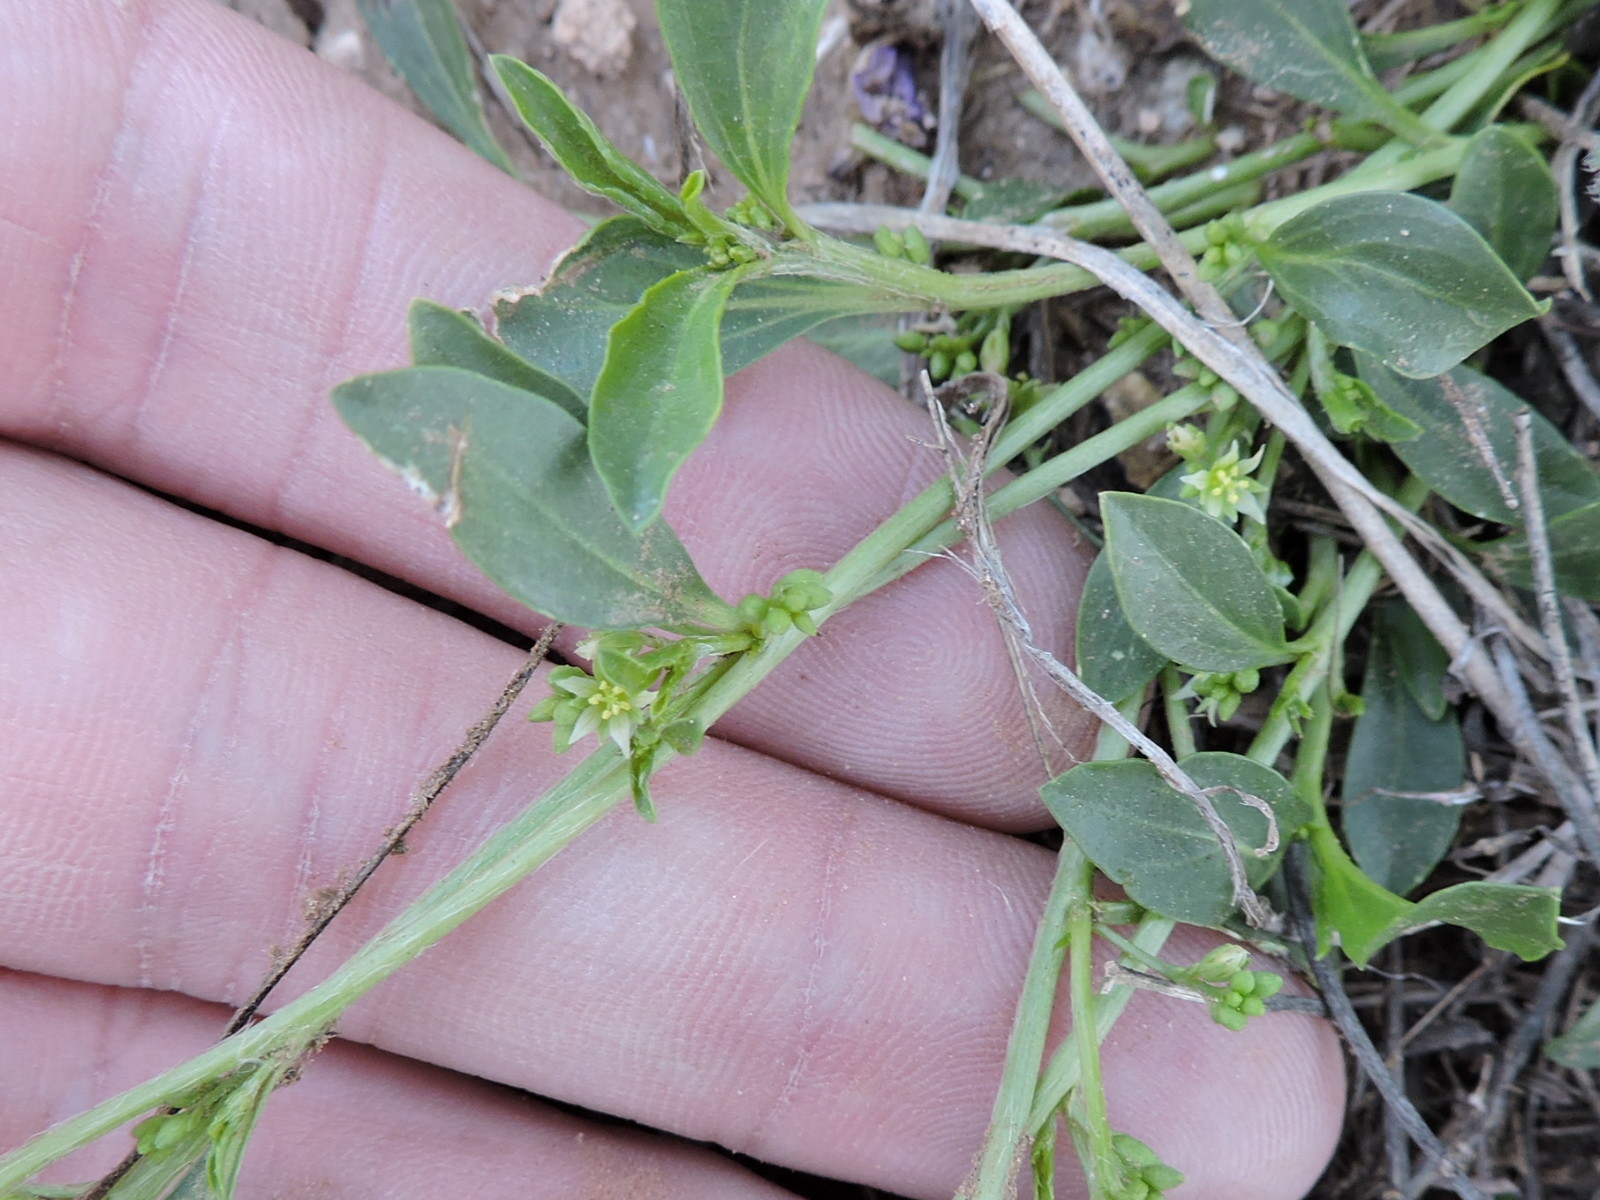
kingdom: Plantae
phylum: Tracheophyta
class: Magnoliopsida
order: Malpighiales
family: Euphorbiaceae
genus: Ditaxis
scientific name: Ditaxis humilis
